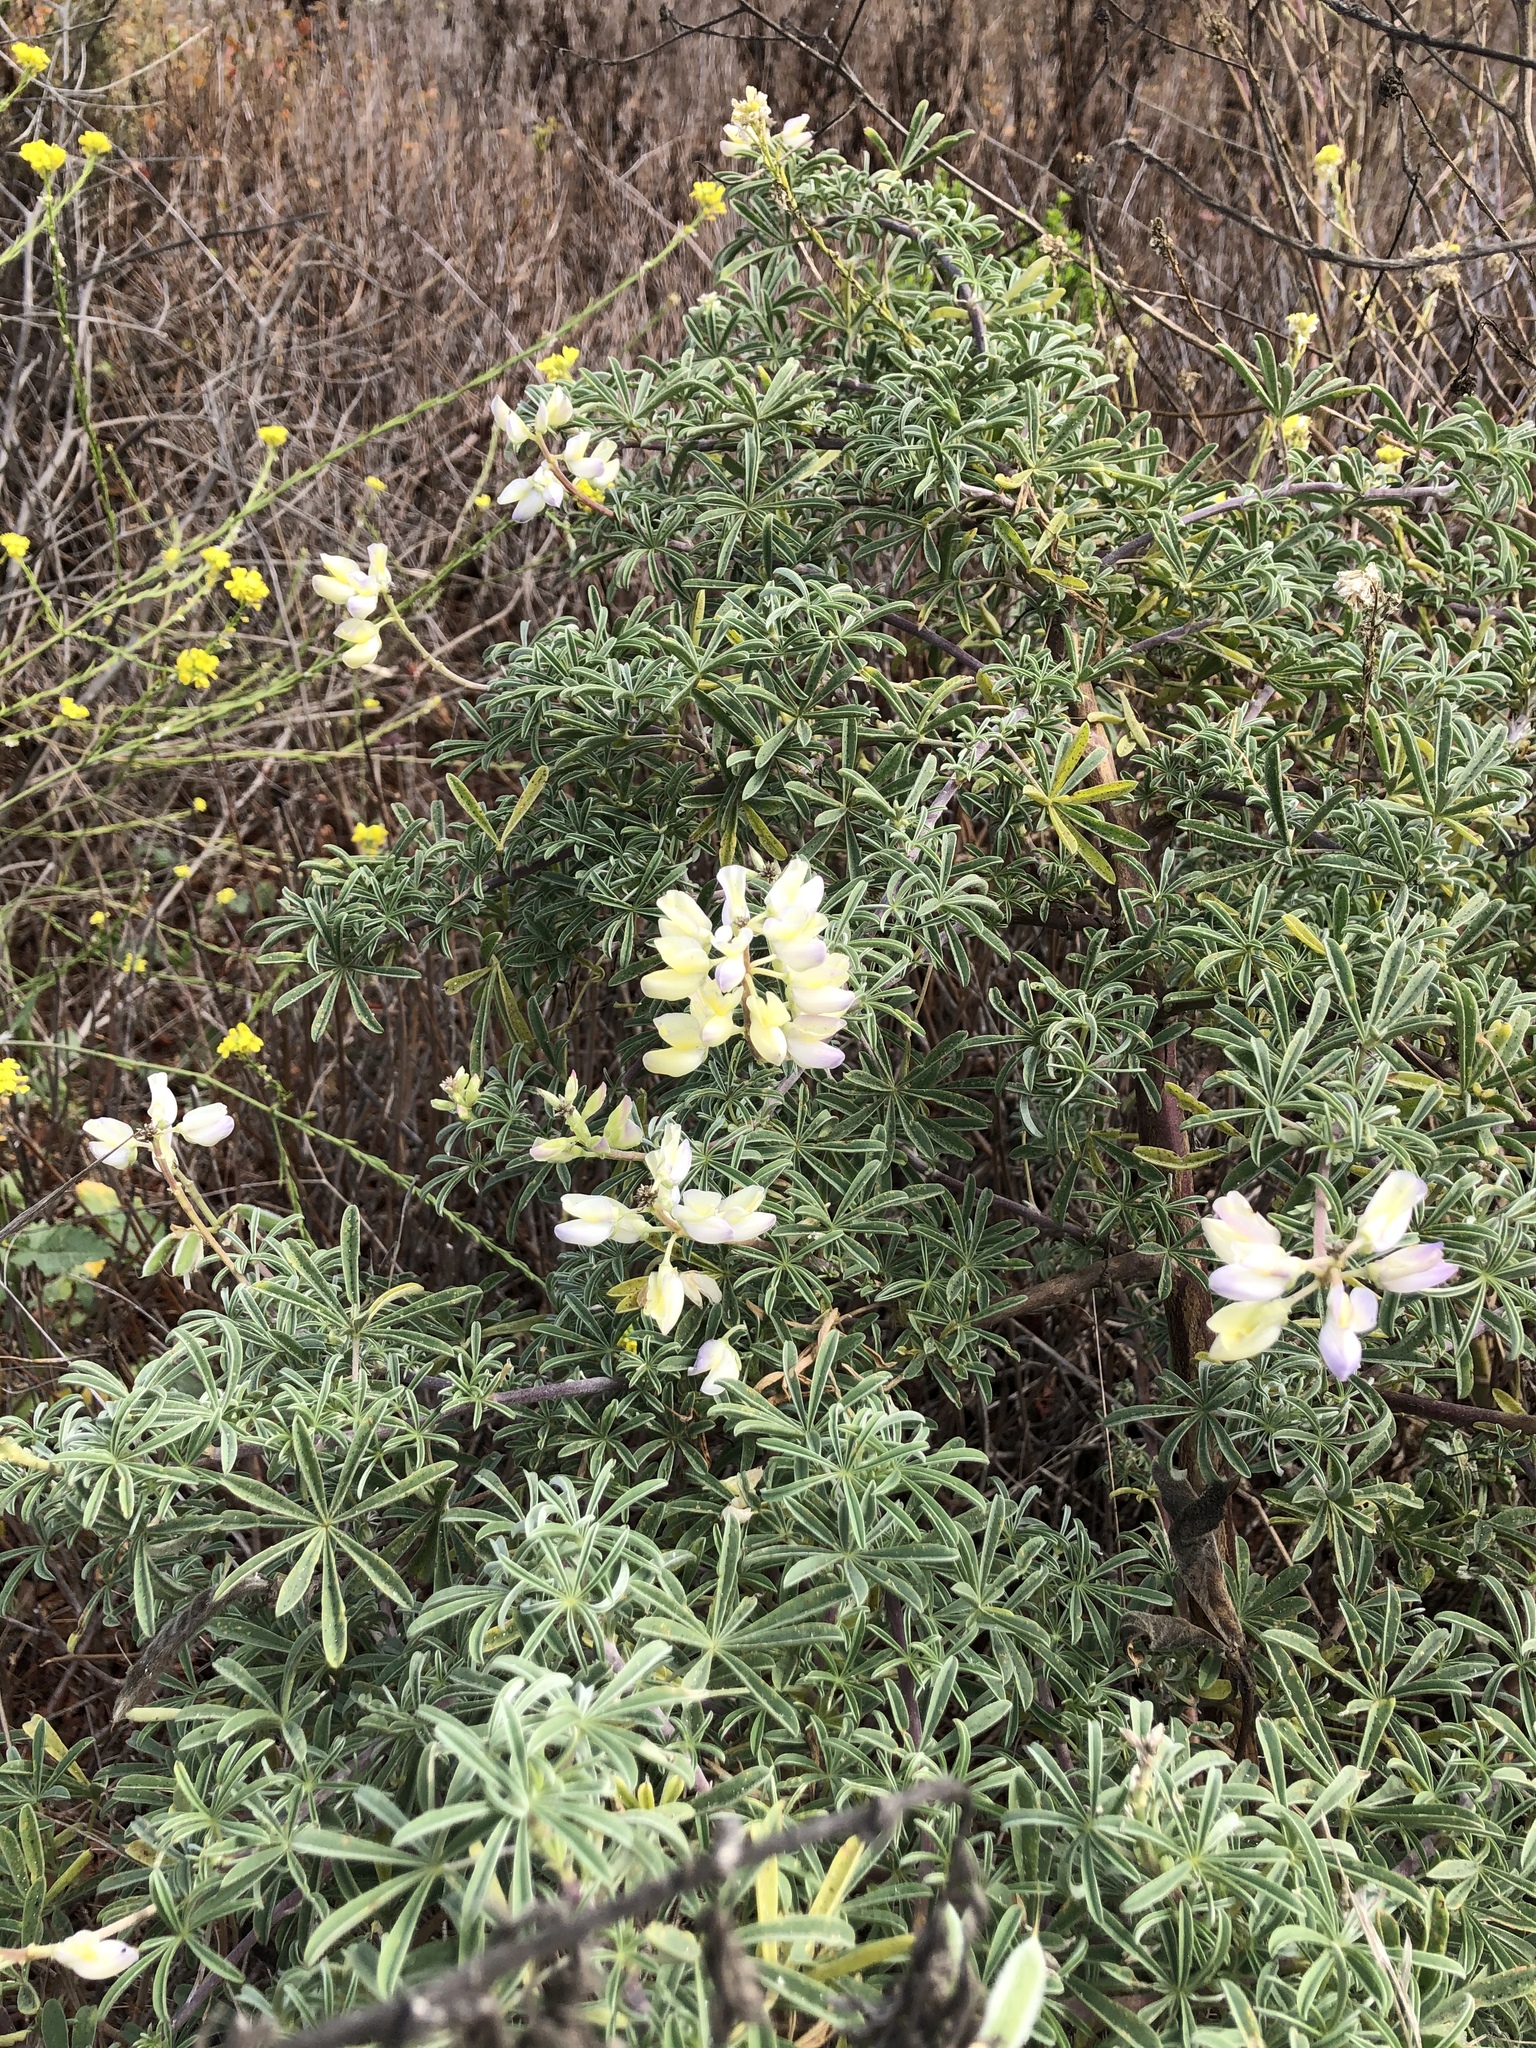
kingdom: Plantae
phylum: Tracheophyta
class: Magnoliopsida
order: Fabales
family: Fabaceae
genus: Lupinus
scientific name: Lupinus arboreus
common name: Yellow bush lupine
